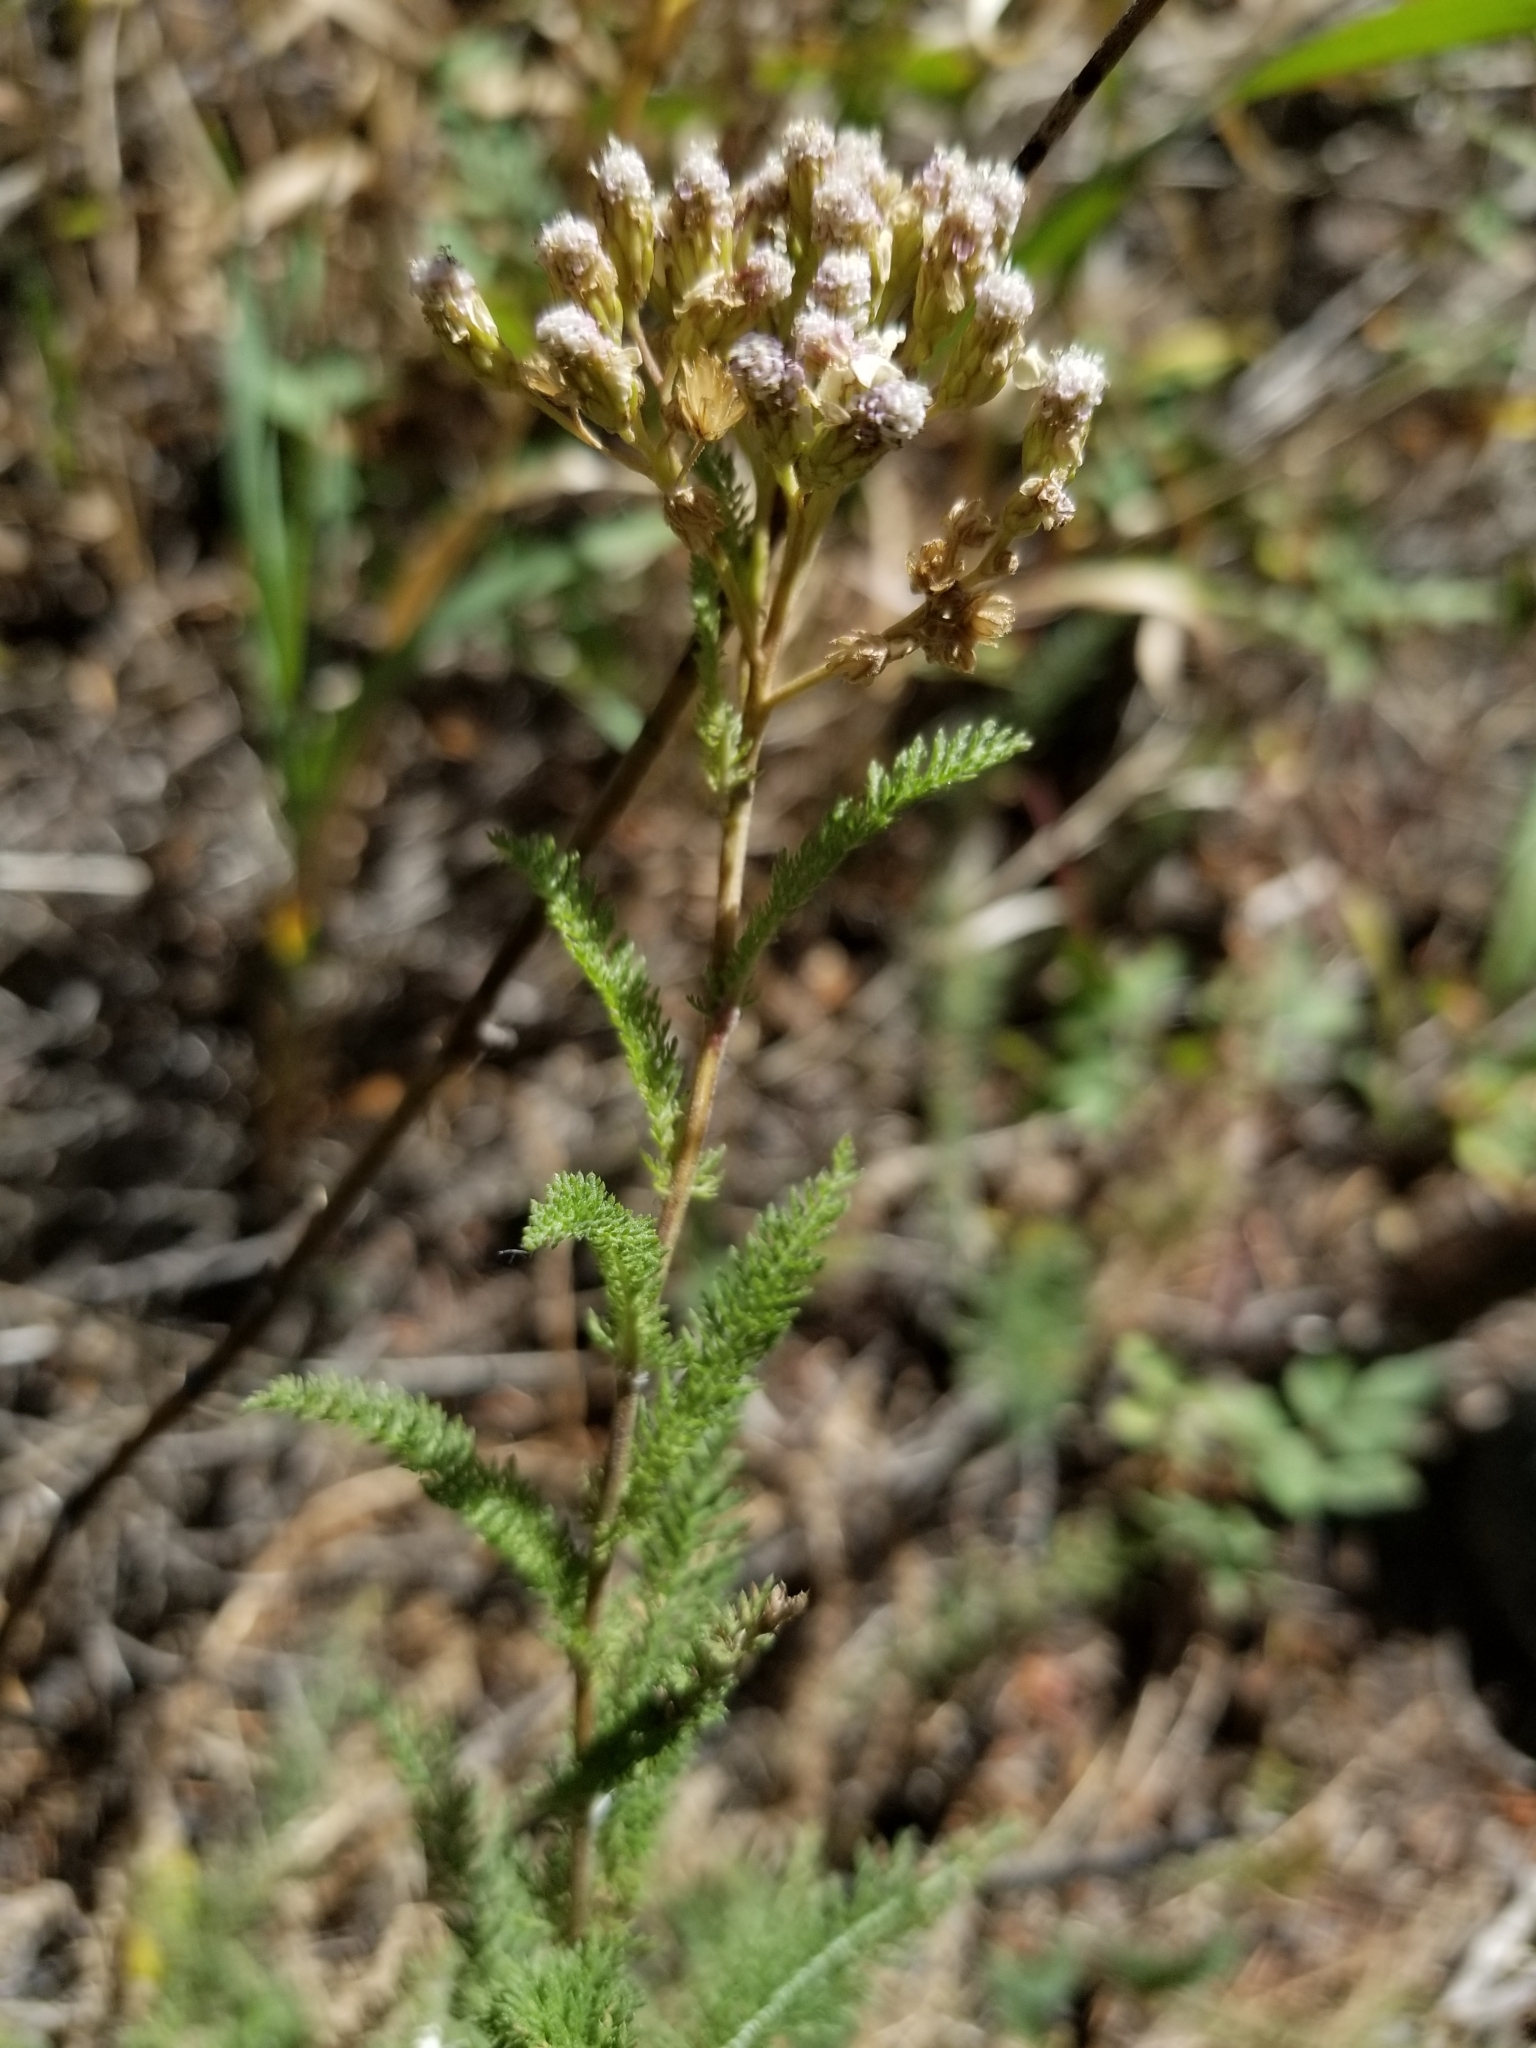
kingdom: Plantae
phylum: Tracheophyta
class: Magnoliopsida
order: Asterales
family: Asteraceae
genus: Achillea
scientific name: Achillea millefolium
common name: Yarrow
